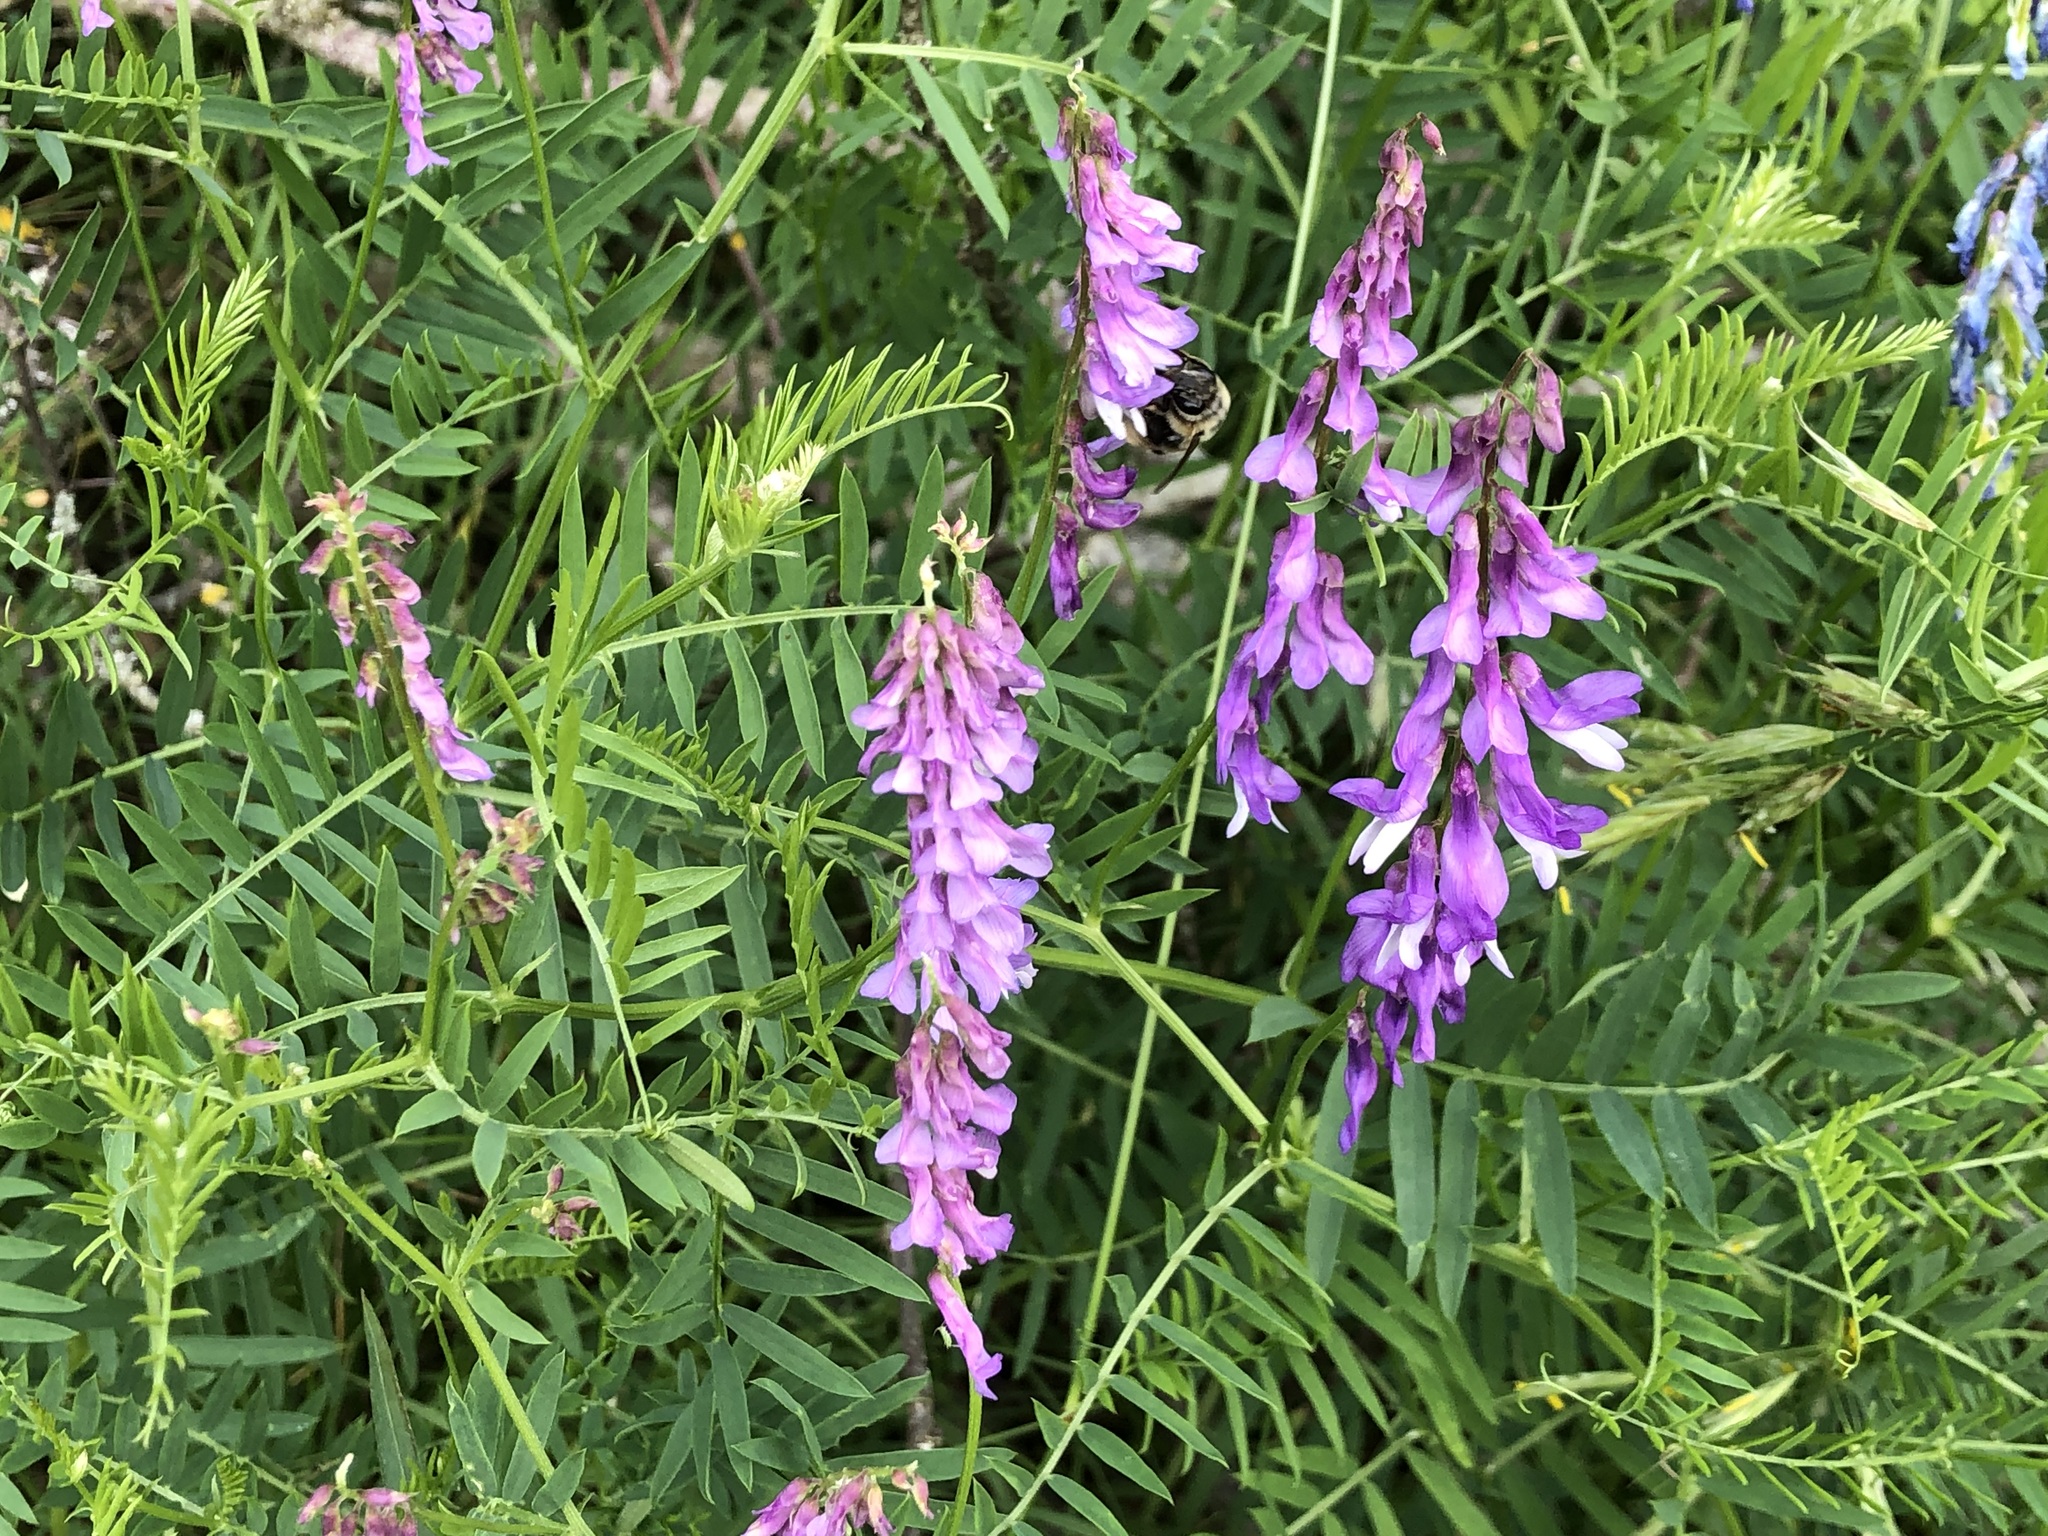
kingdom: Plantae
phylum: Tracheophyta
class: Magnoliopsida
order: Fabales
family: Fabaceae
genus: Vicia
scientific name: Vicia cracca
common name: Bird vetch
